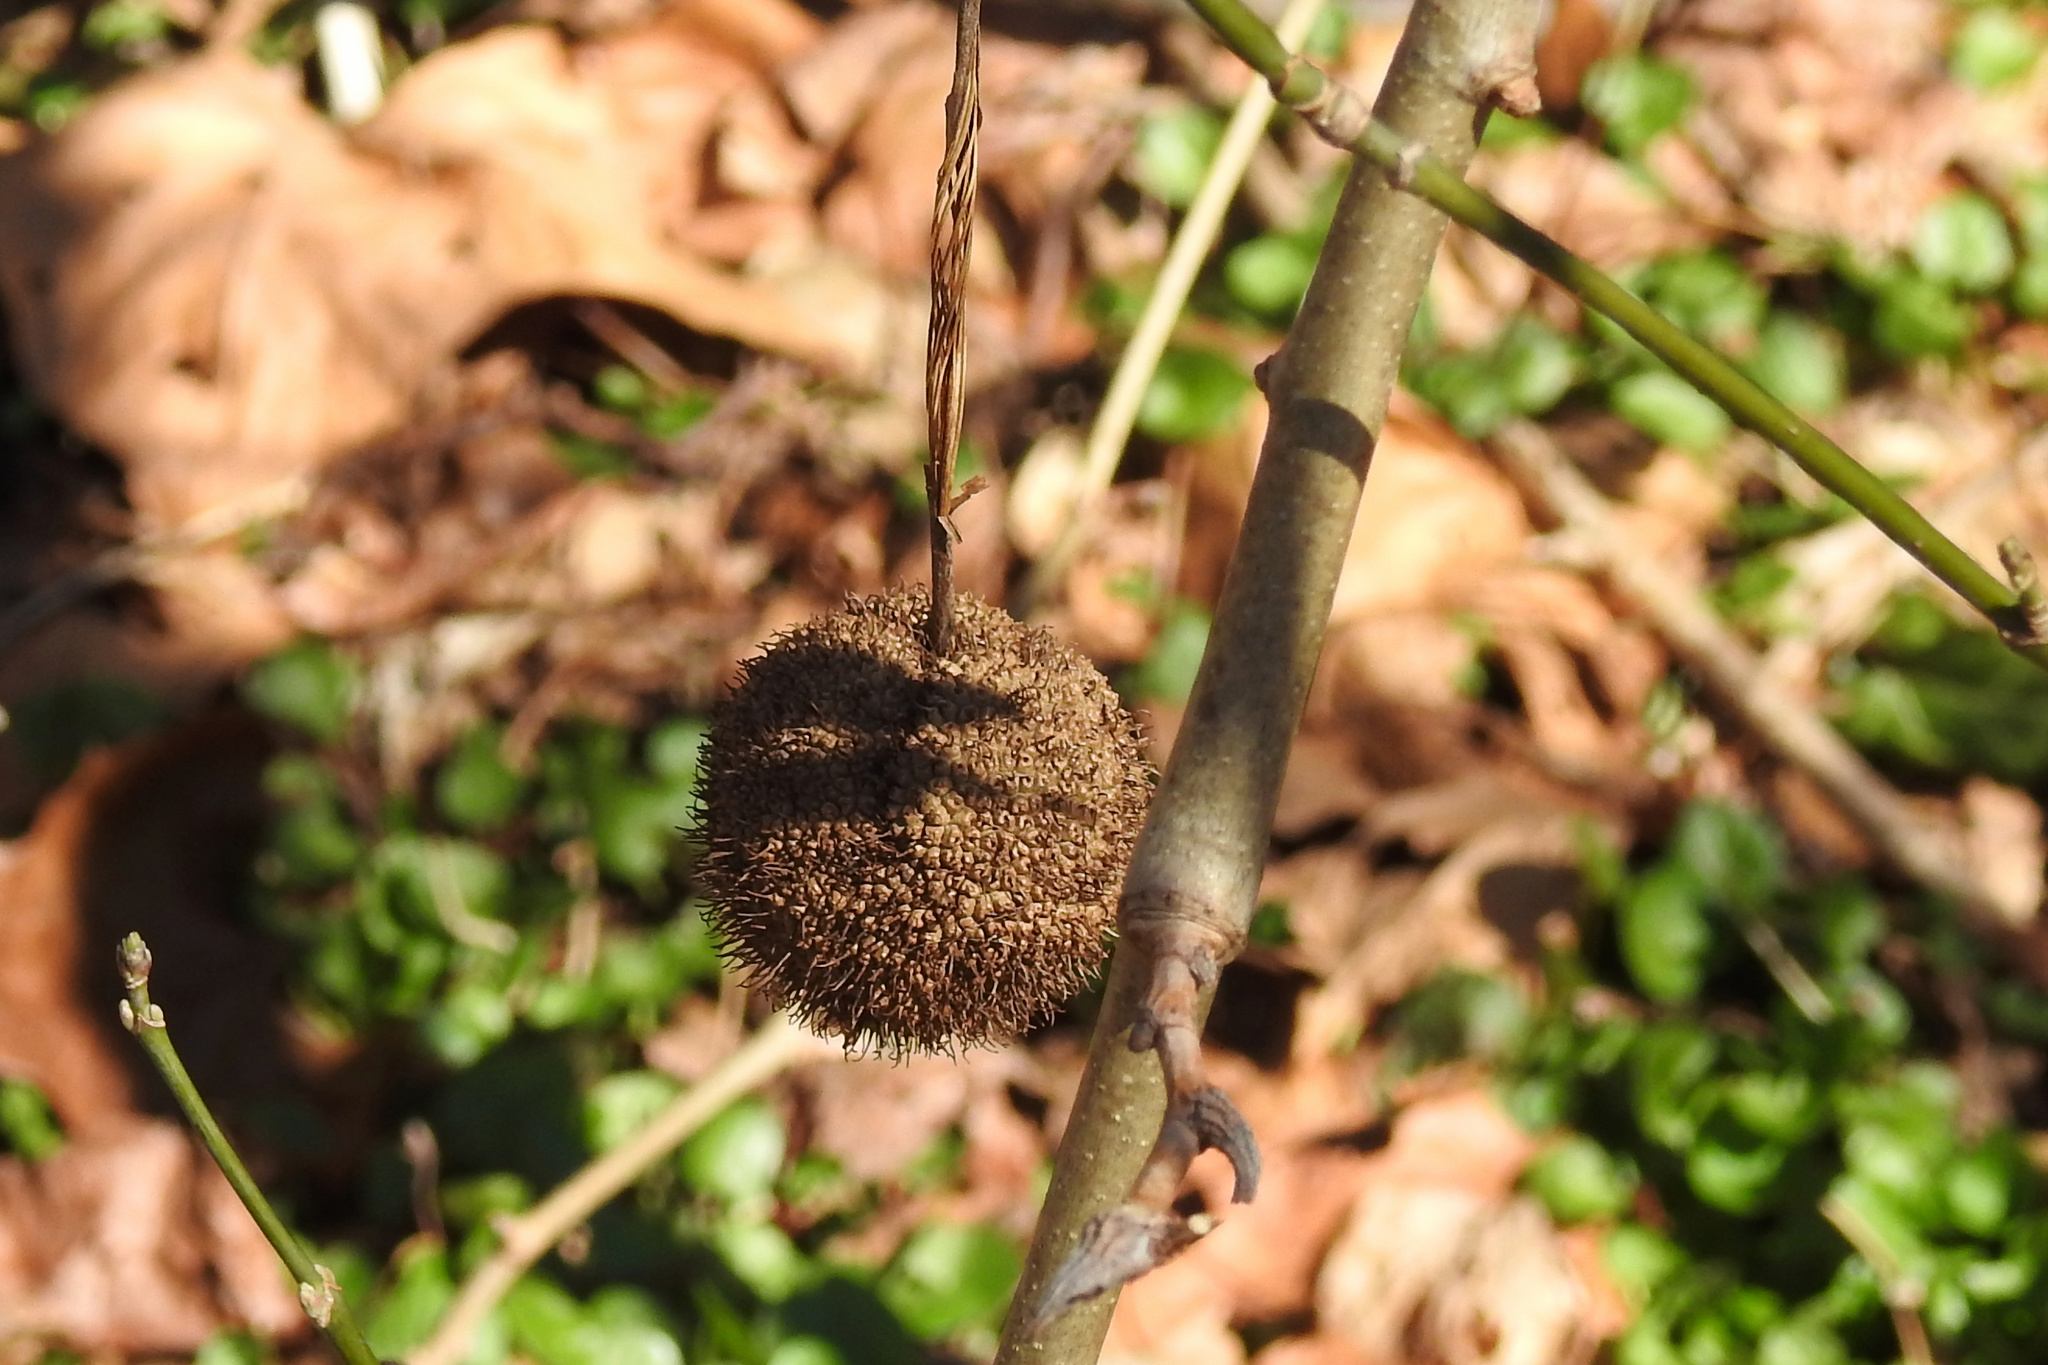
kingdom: Plantae
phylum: Tracheophyta
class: Magnoliopsida
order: Proteales
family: Platanaceae
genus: Platanus
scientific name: Platanus occidentalis
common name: American sycamore
